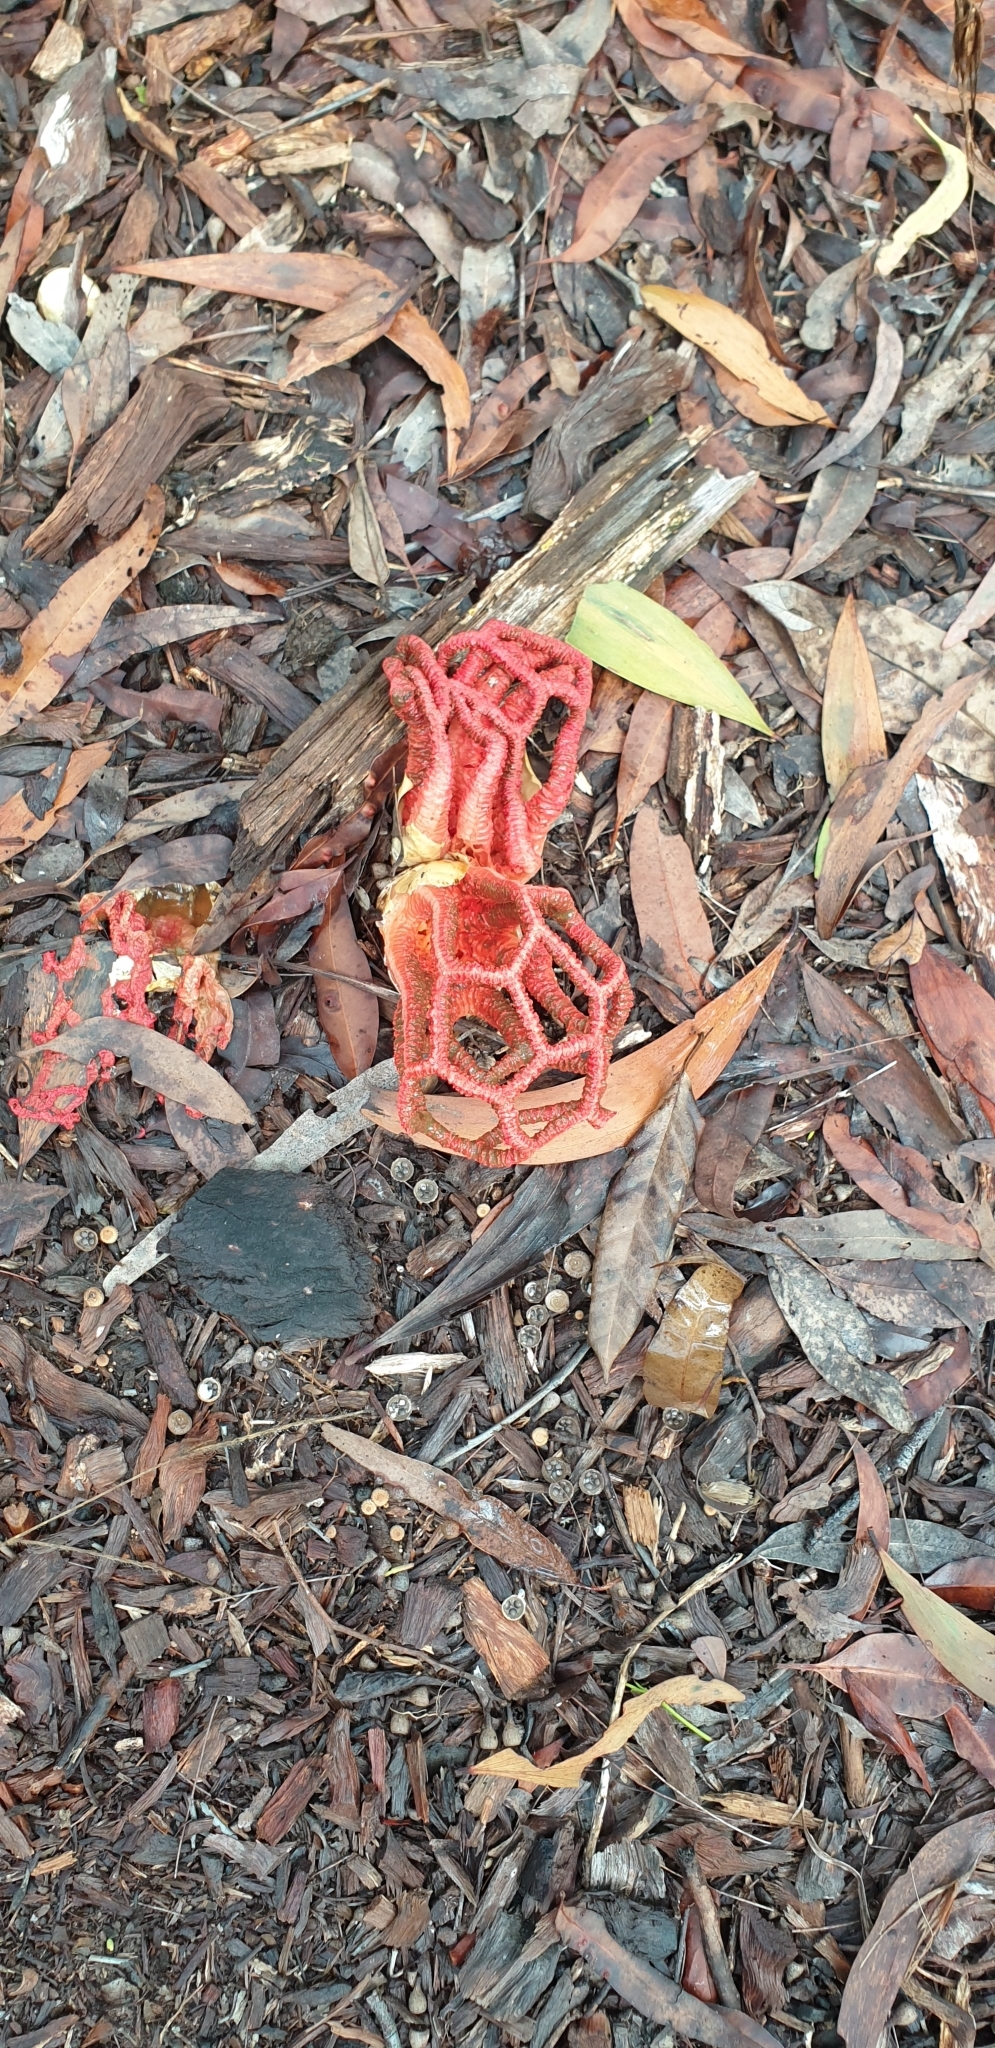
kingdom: Fungi
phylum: Basidiomycota
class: Agaricomycetes
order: Phallales
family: Phallaceae
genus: Colus
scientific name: Colus pusillus
